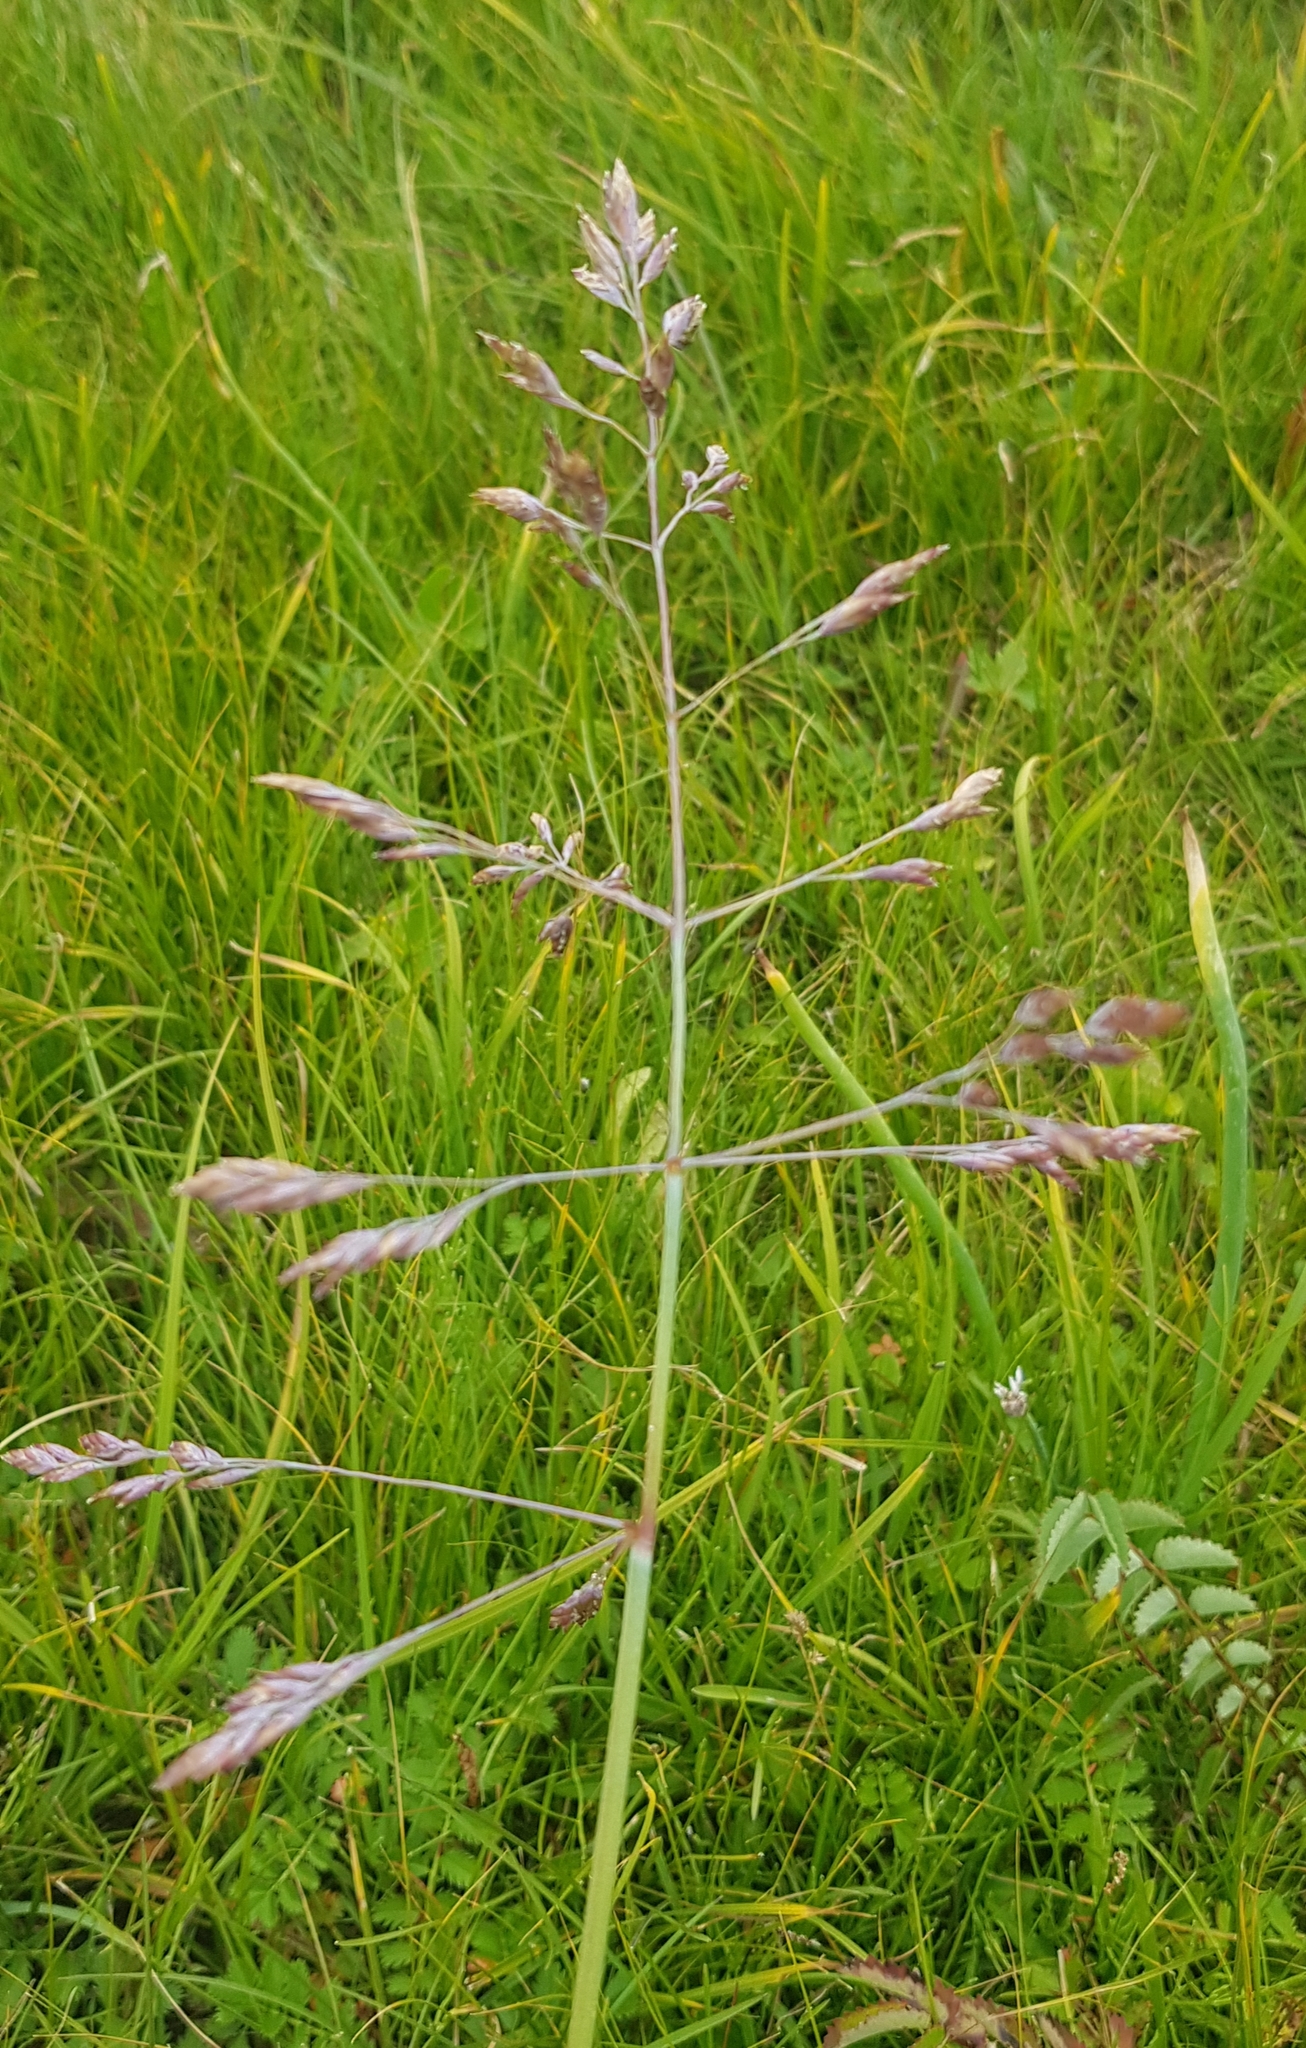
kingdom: Plantae
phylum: Tracheophyta
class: Liliopsida
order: Poales
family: Poaceae
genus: Poa
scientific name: Poa subfastigiata
